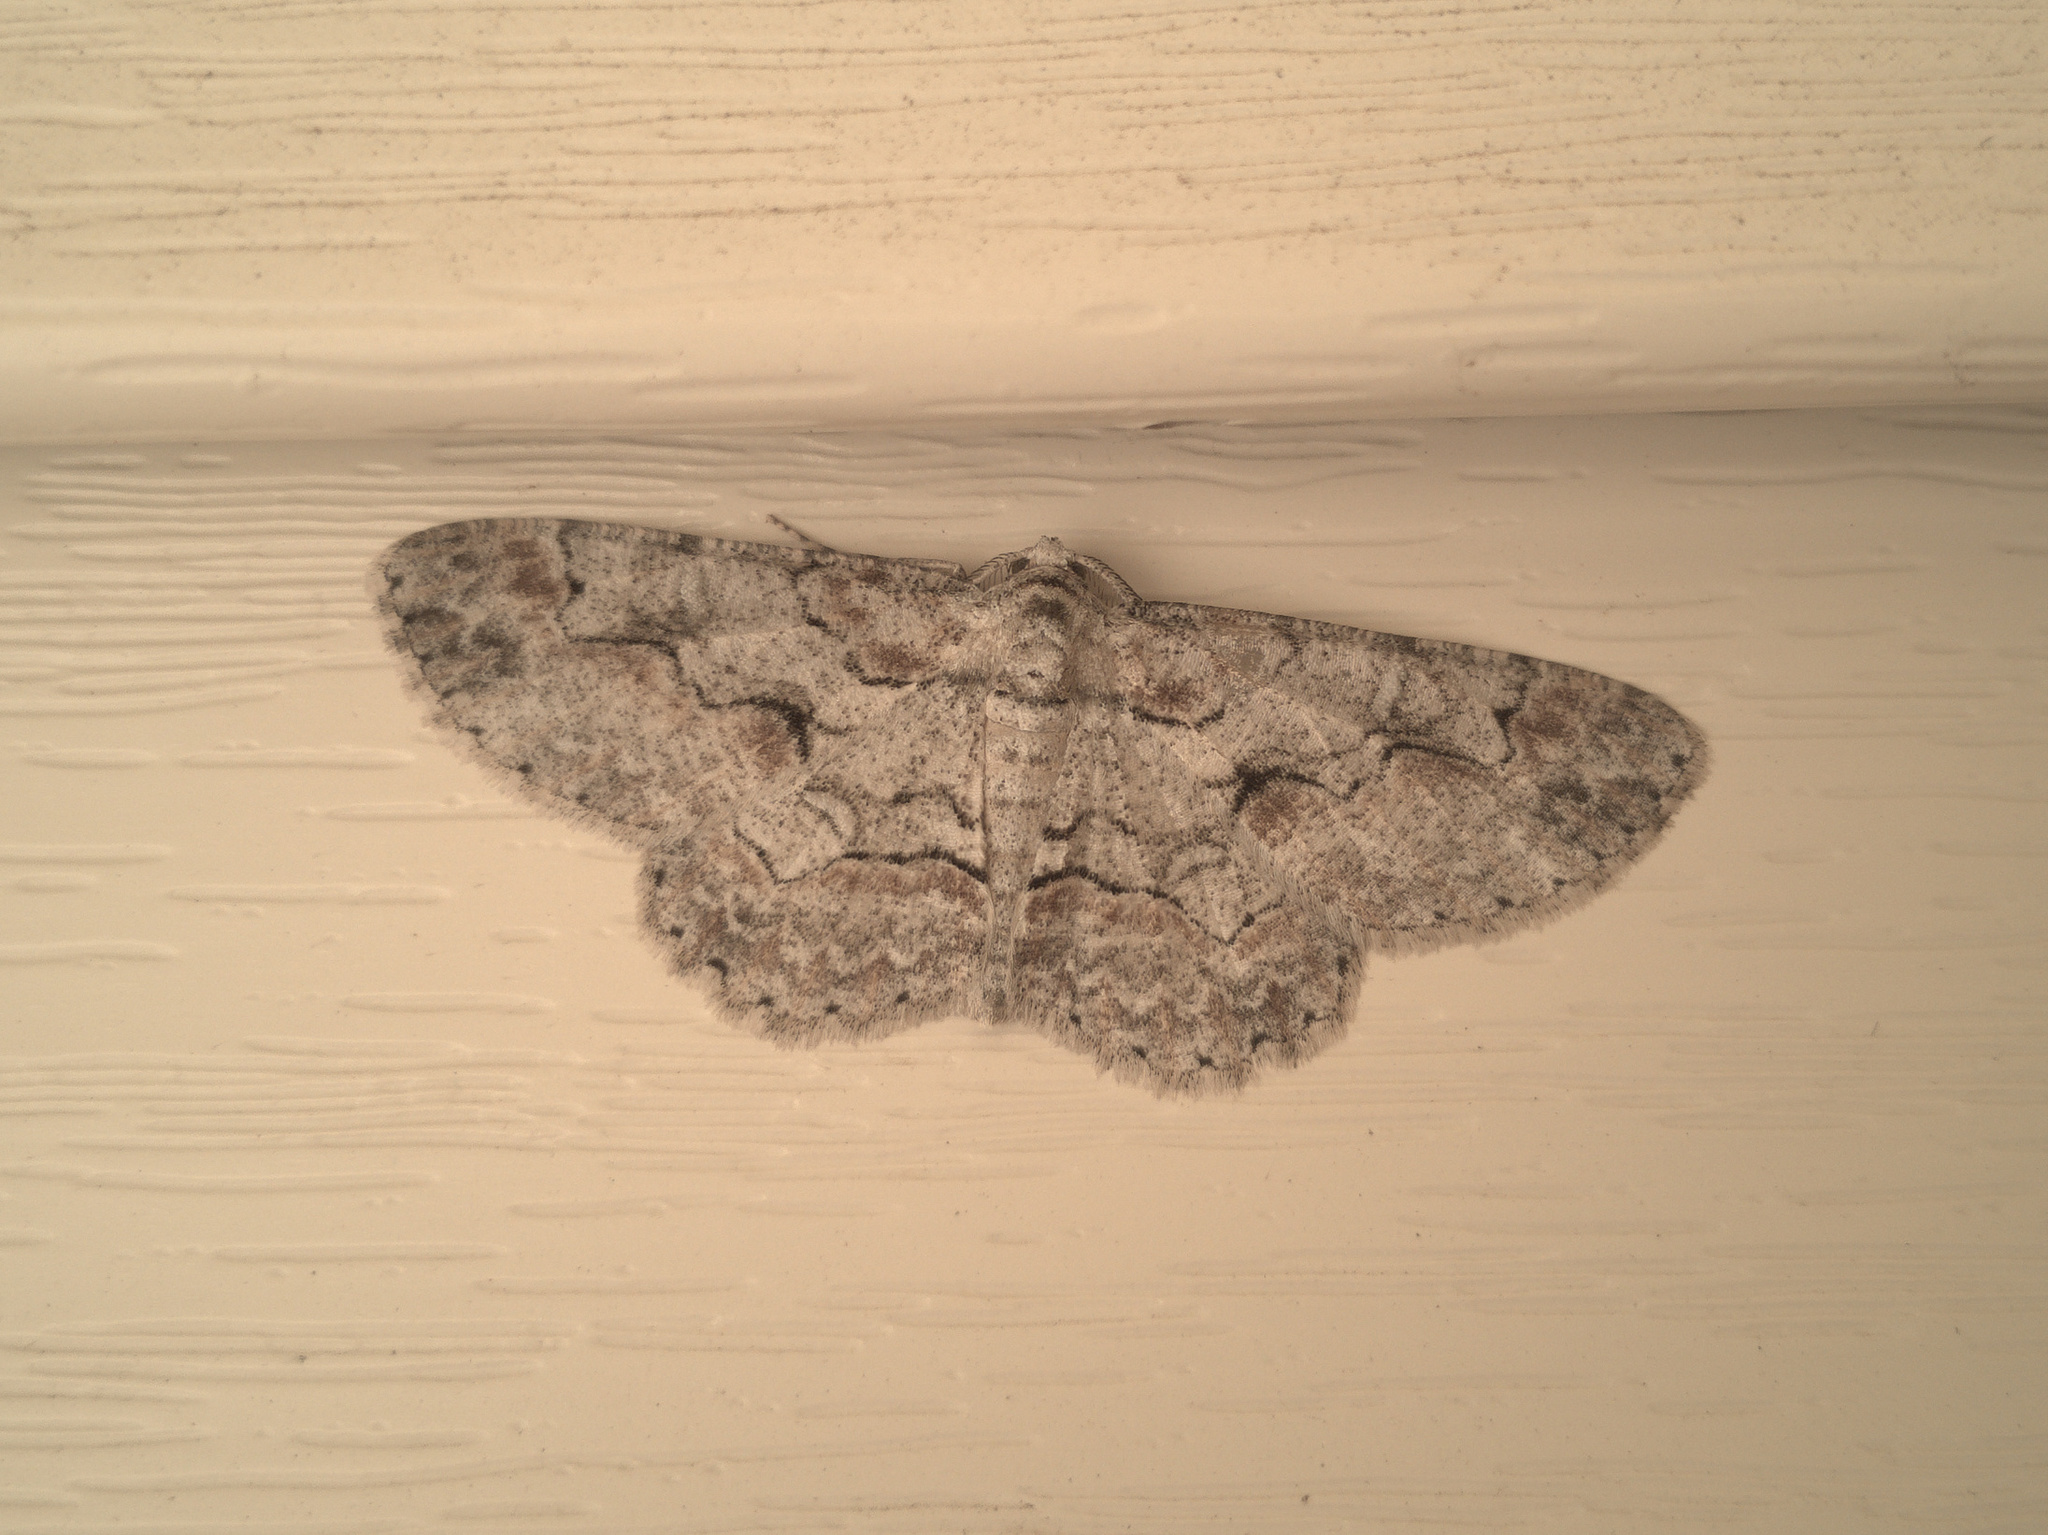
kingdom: Animalia
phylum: Arthropoda
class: Insecta
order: Lepidoptera
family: Geometridae
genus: Iridopsis
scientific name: Iridopsis defectaria
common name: Brown-shaded gray
